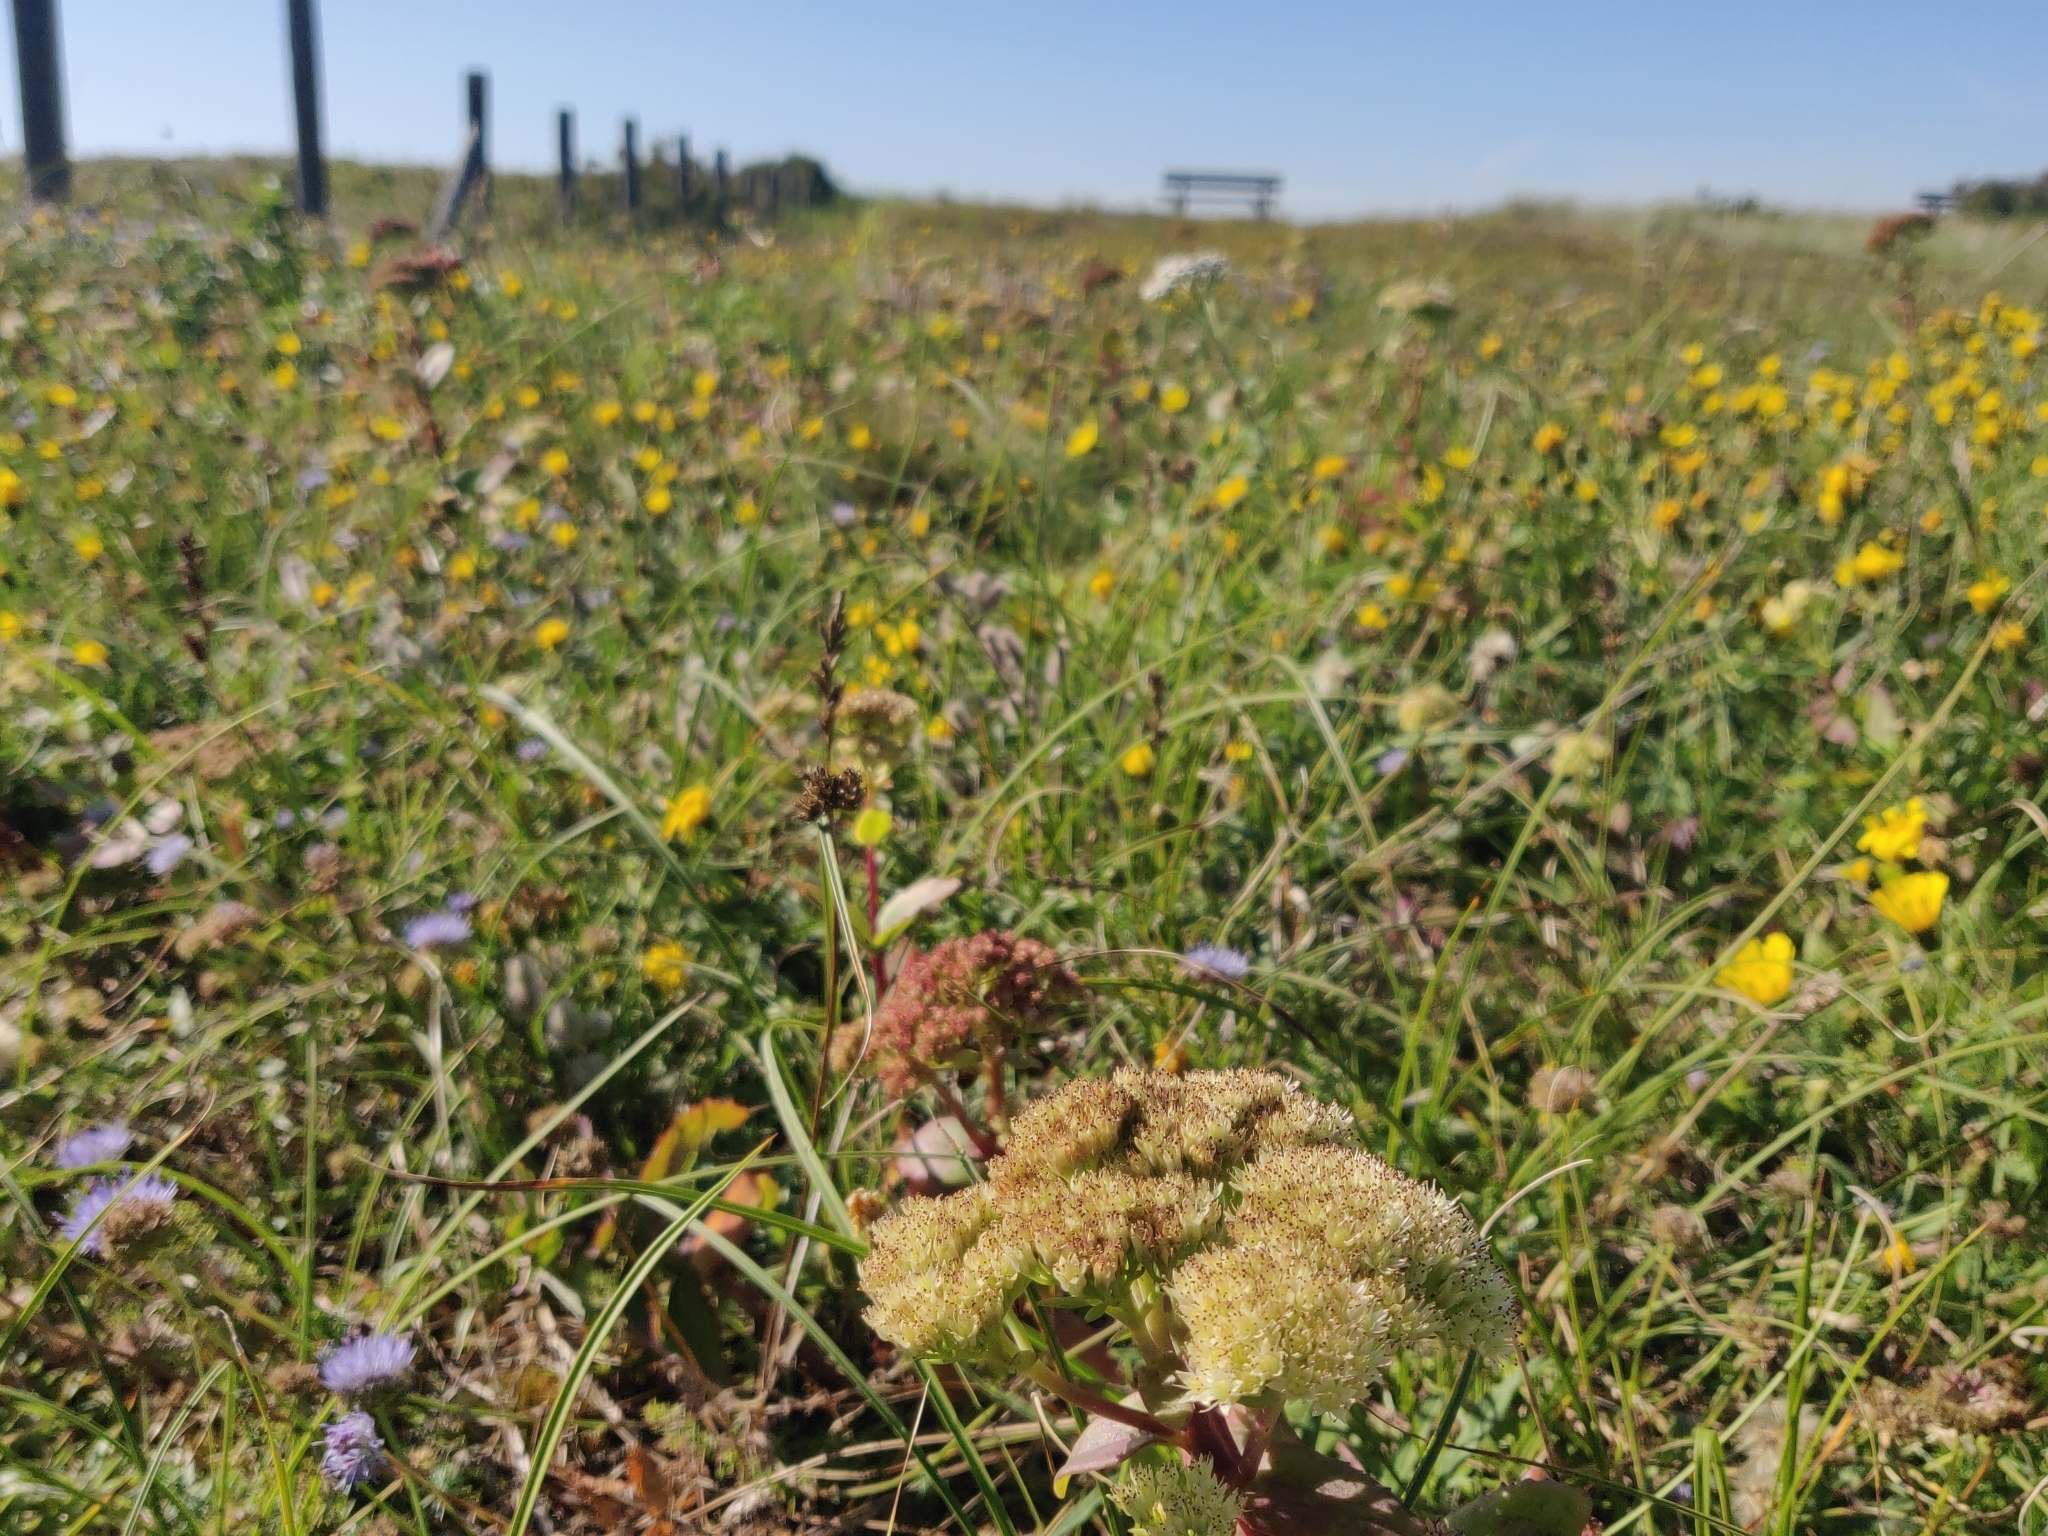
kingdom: Plantae
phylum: Tracheophyta
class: Magnoliopsida
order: Saxifragales
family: Crassulaceae
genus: Hylotelephium
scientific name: Hylotelephium telephium
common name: Live-forever
